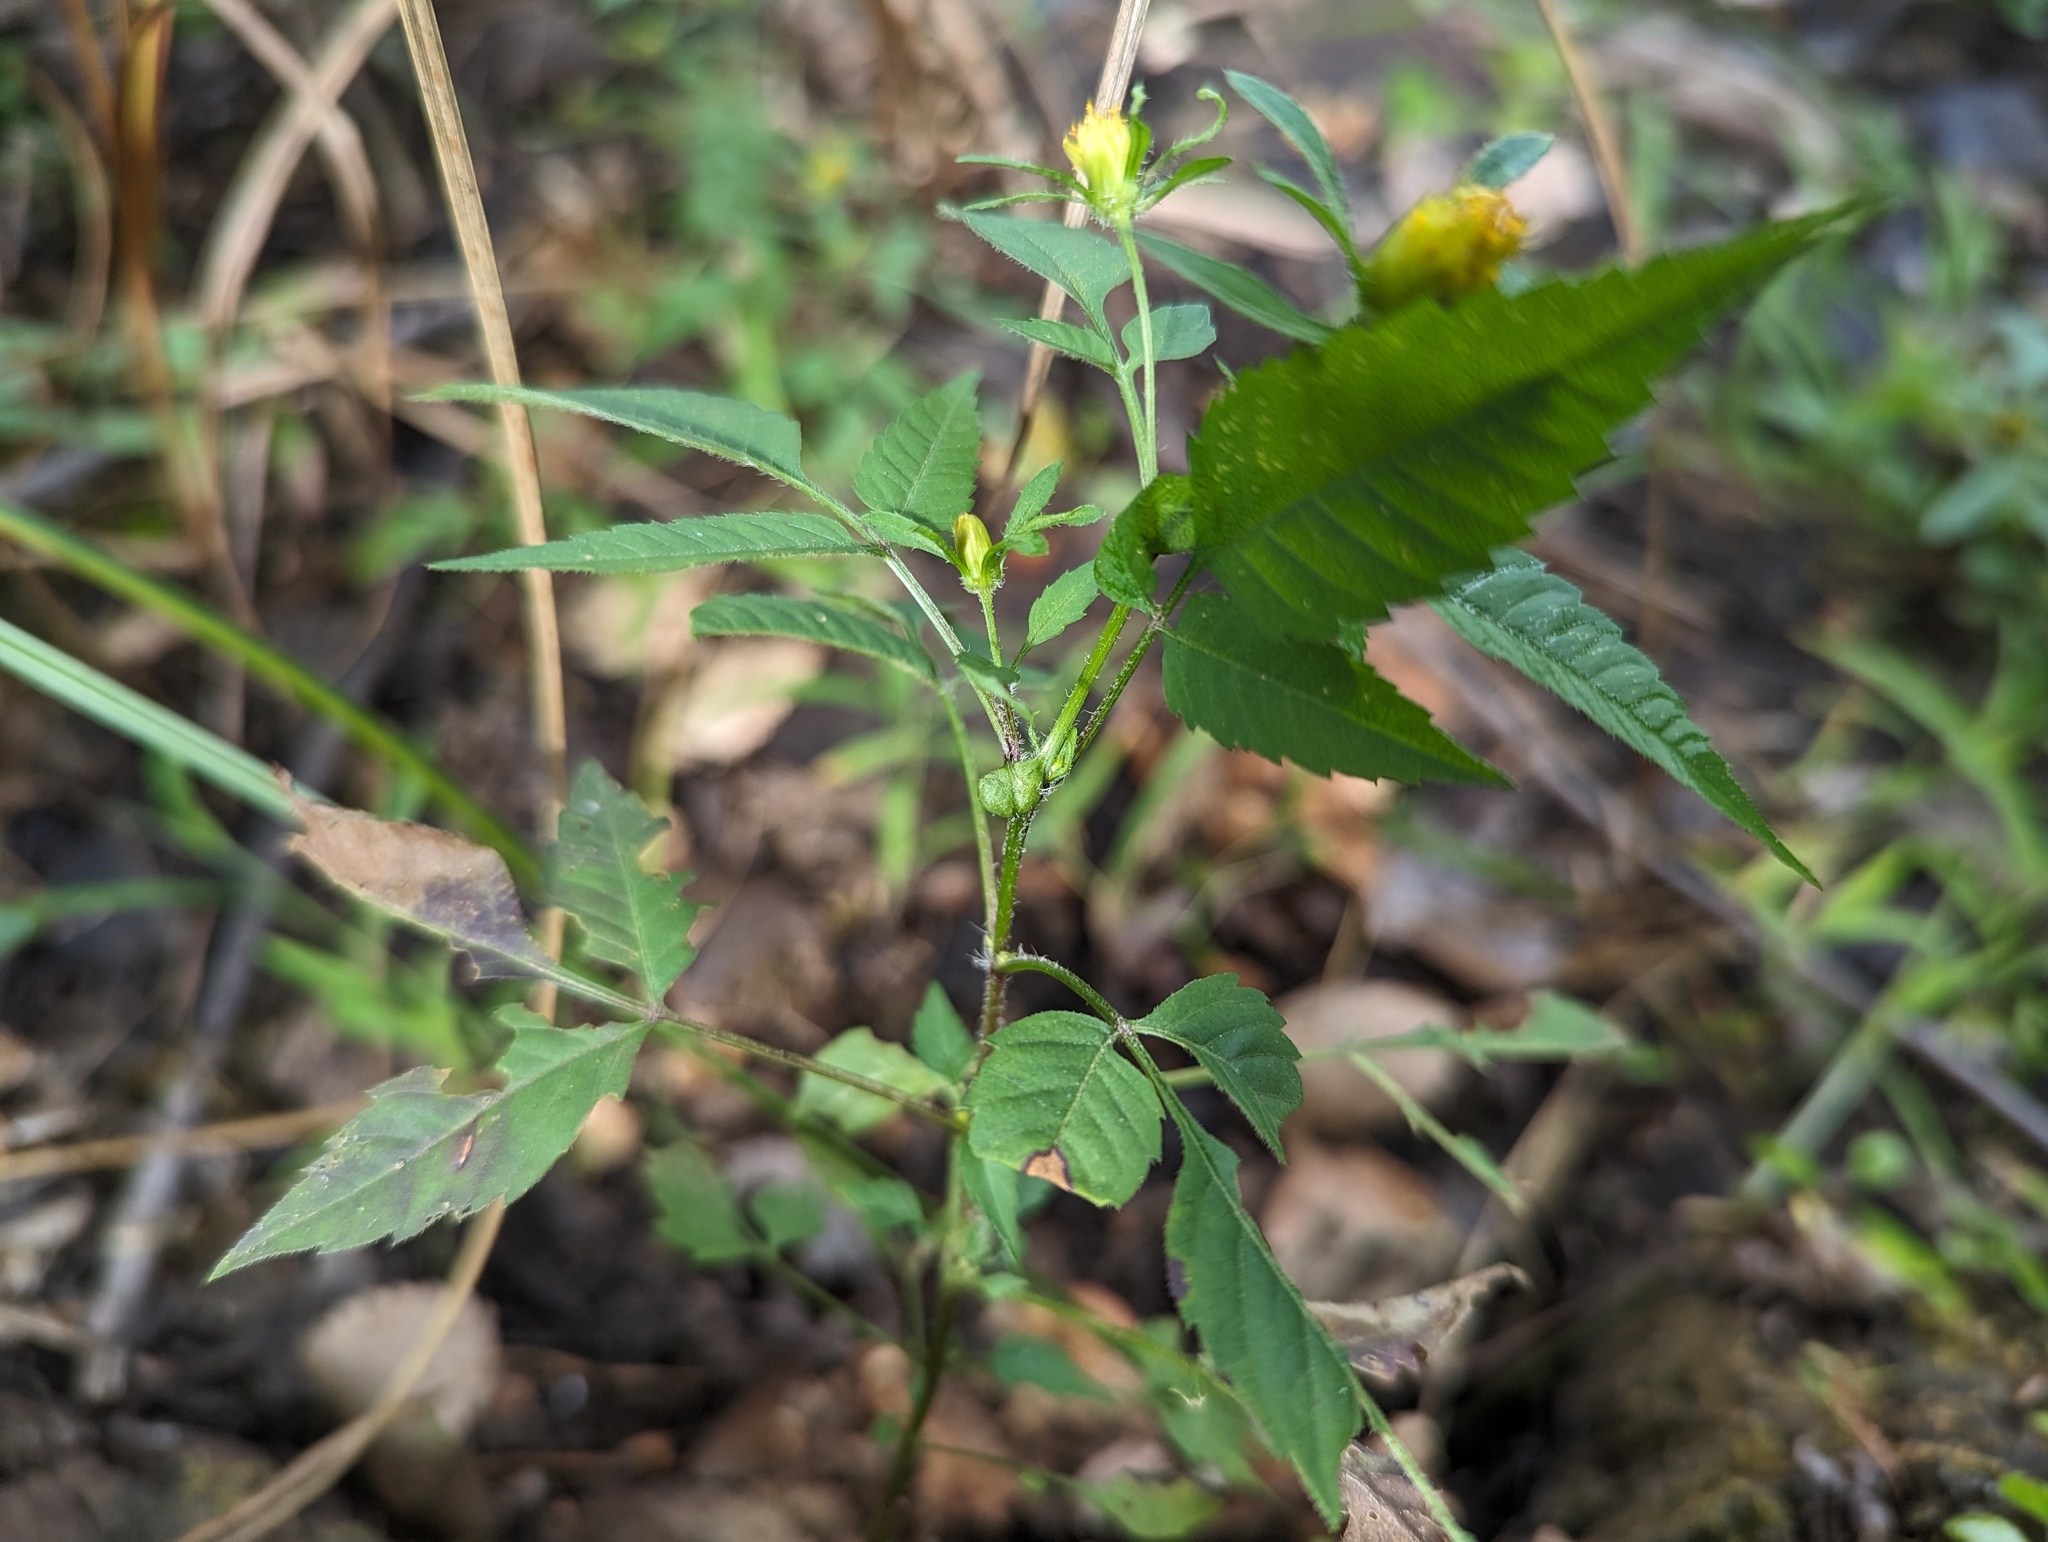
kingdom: Animalia
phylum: Arthropoda
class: Insecta
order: Diptera
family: Cecidomyiidae
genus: Asphondylia
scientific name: Asphondylia ovata
